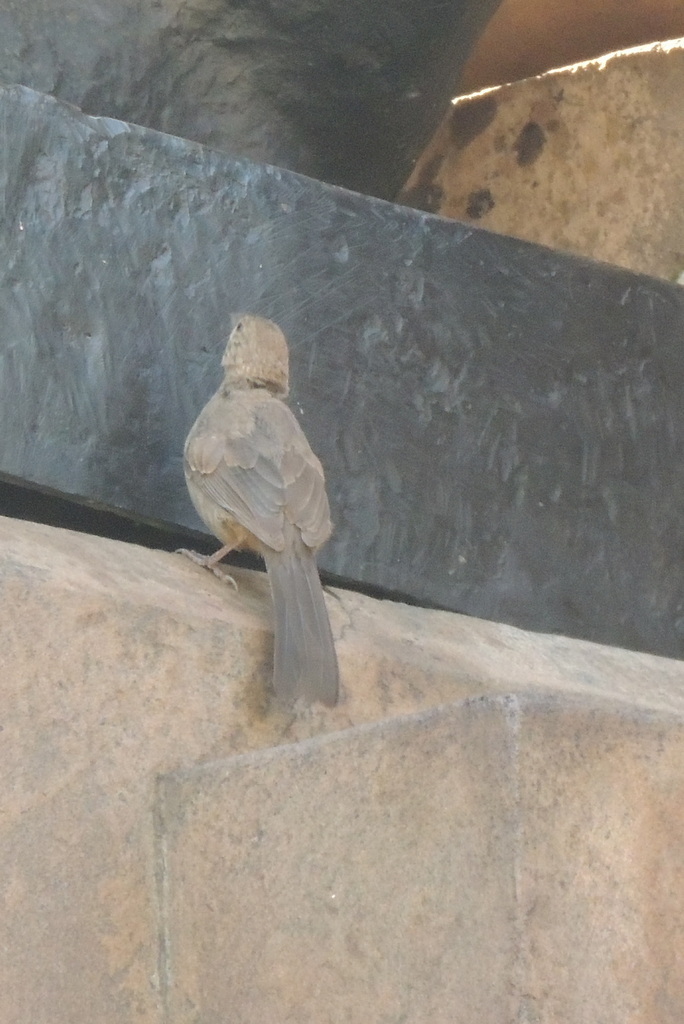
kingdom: Animalia
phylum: Chordata
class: Aves
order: Passeriformes
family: Passerellidae
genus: Melozone
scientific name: Melozone fusca
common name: Canyon towhee
